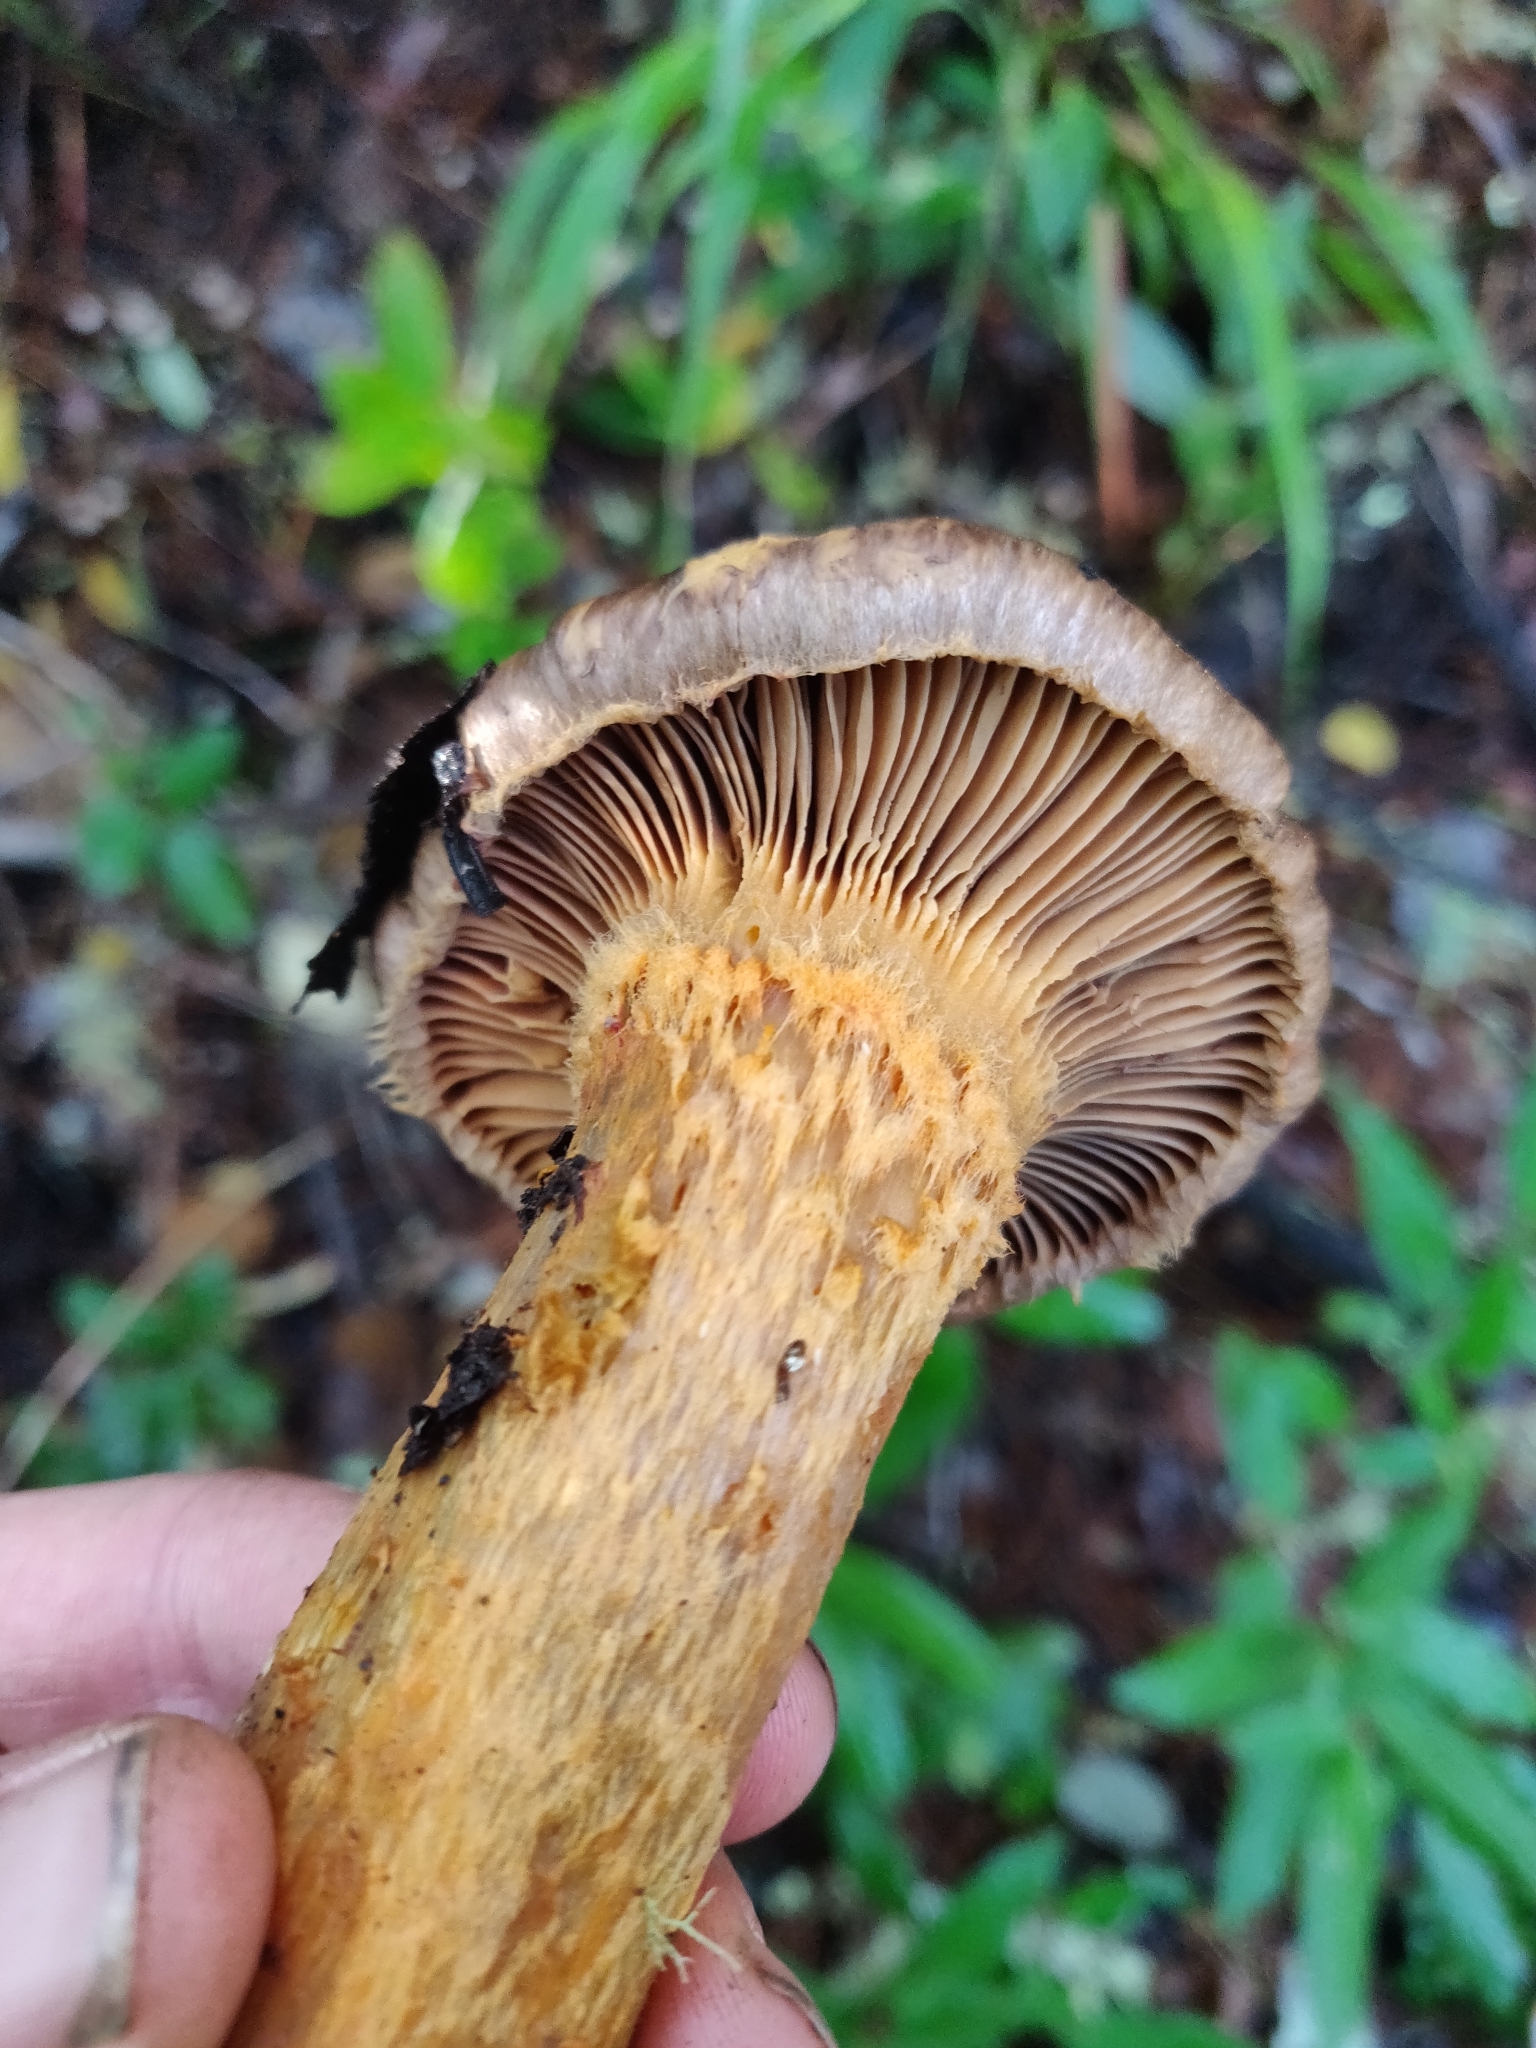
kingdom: Fungi
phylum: Basidiomycota
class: Agaricomycetes
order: Boletales
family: Gomphidiaceae
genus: Chroogomphus
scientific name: Chroogomphus vinicolor
